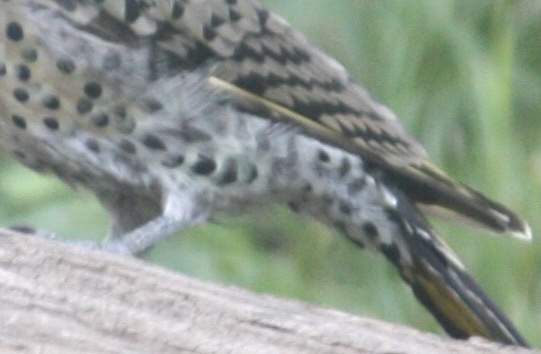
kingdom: Animalia
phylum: Chordata
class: Aves
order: Piciformes
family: Picidae
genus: Colaptes
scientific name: Colaptes auratus
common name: Northern flicker
